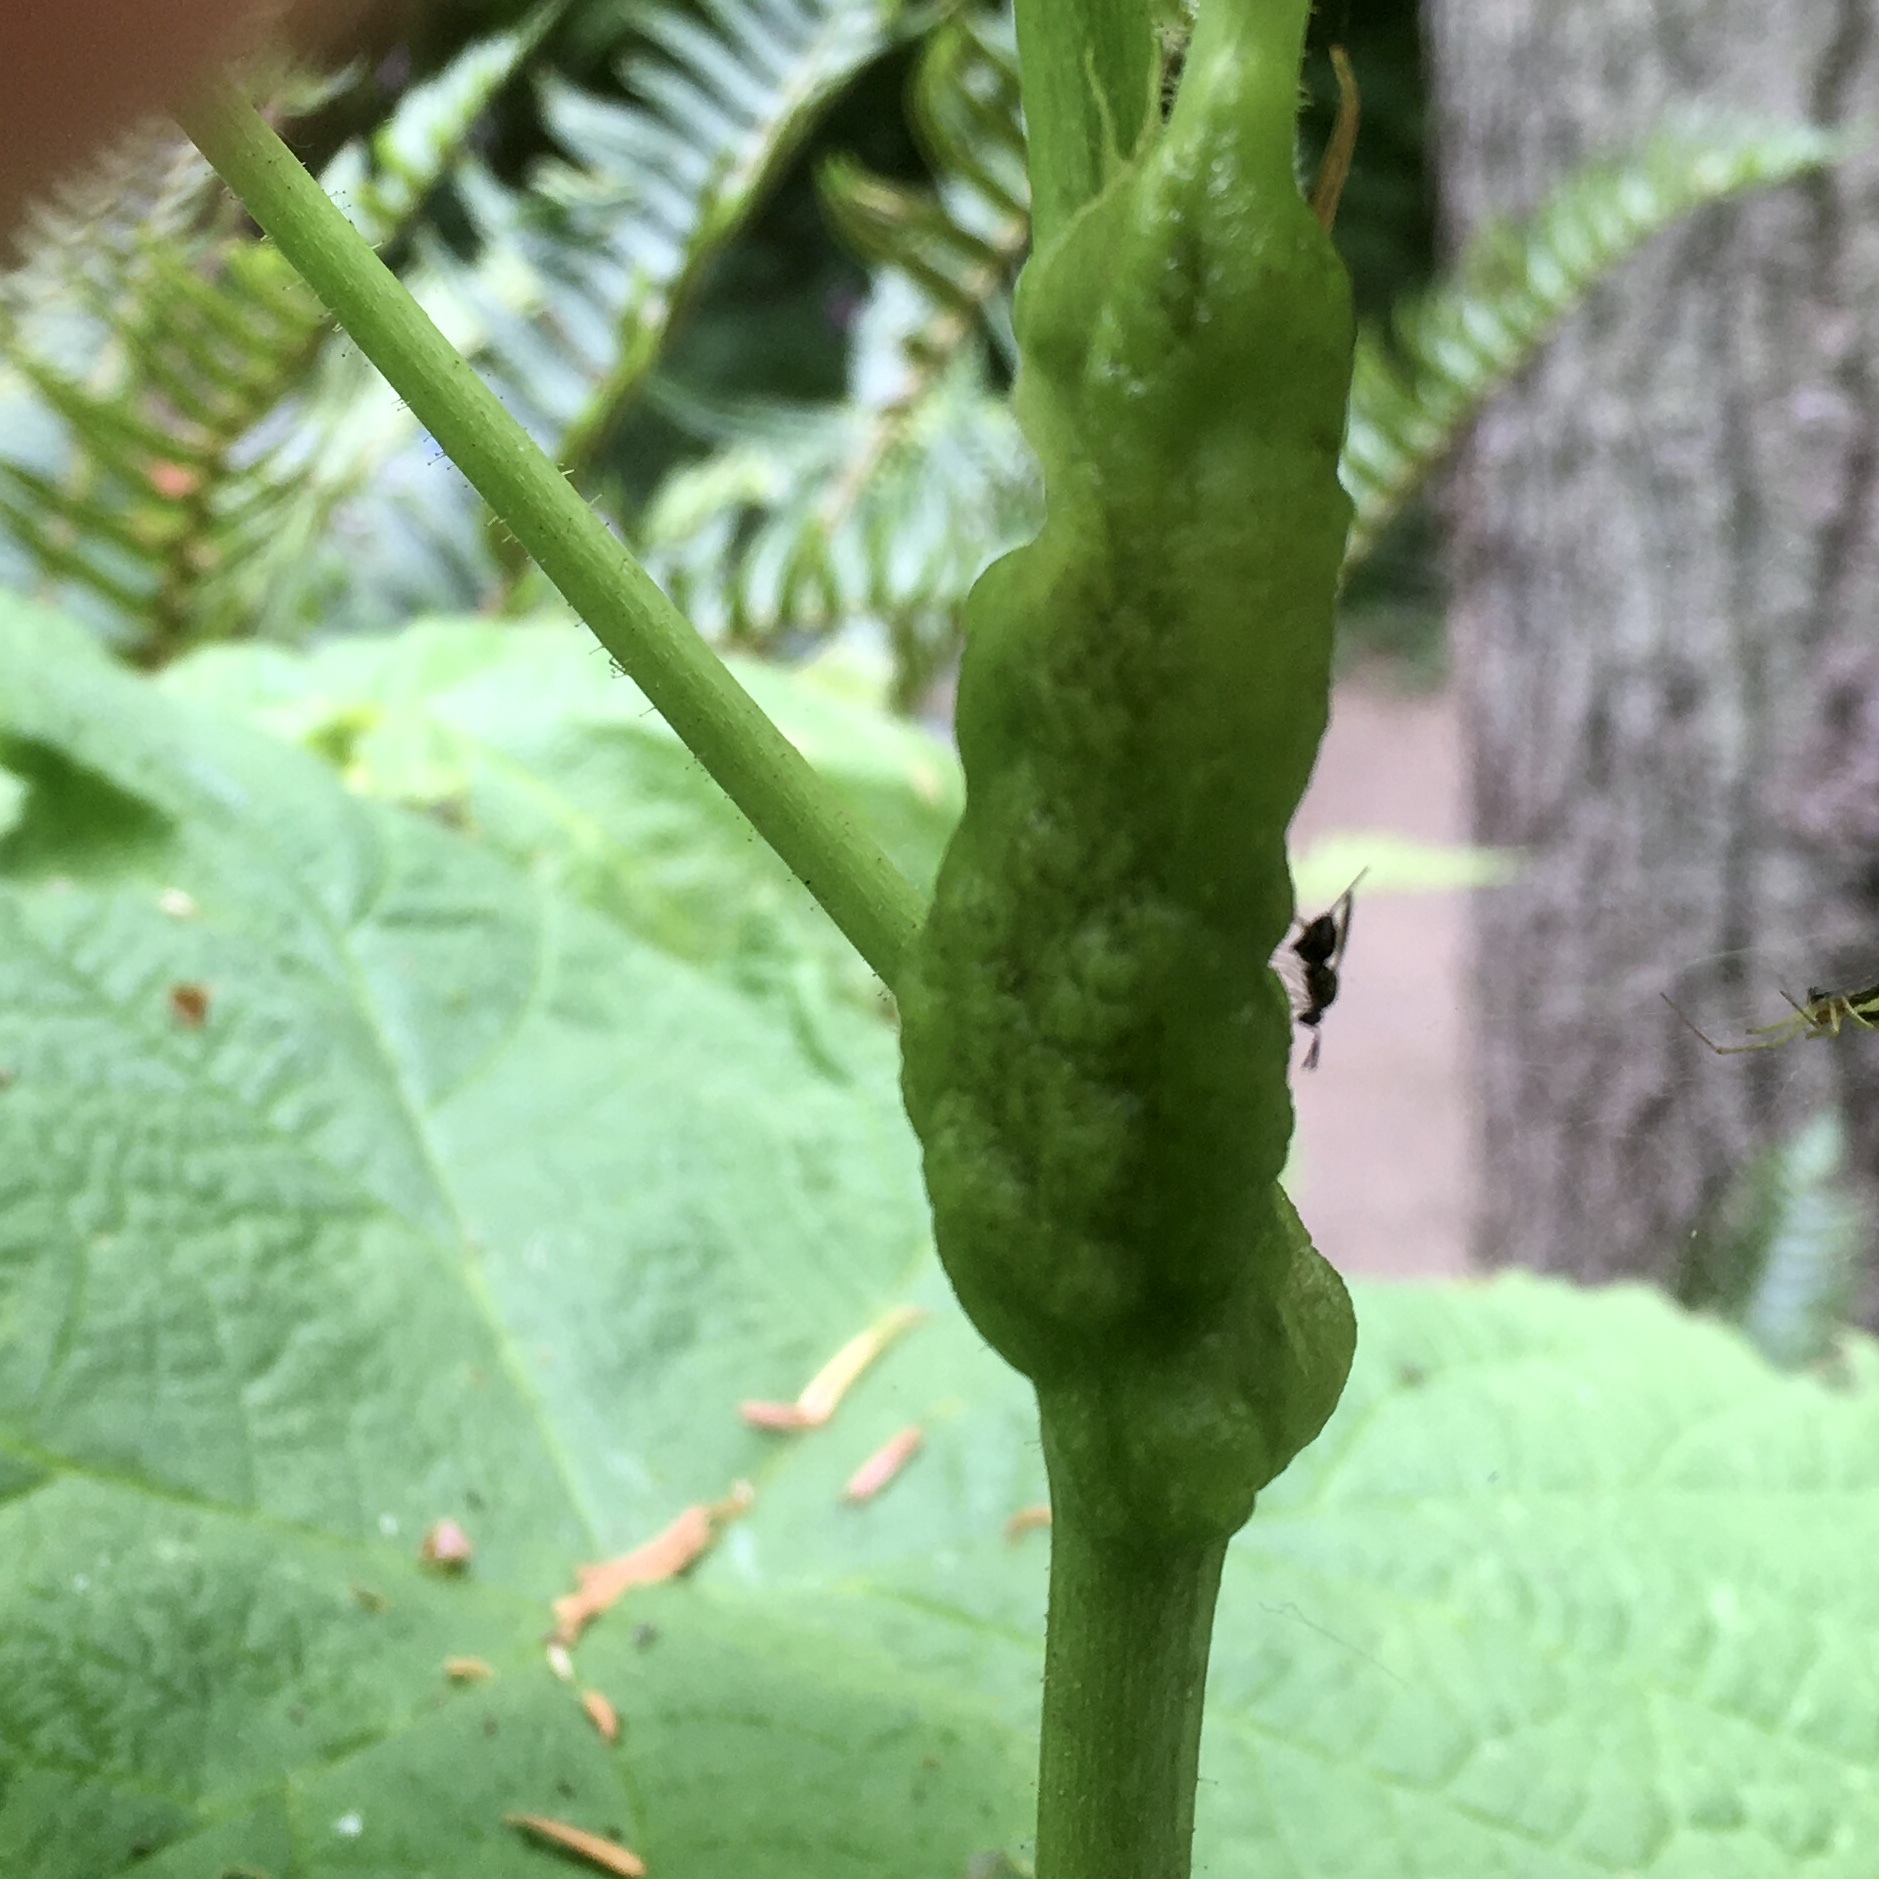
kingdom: Animalia
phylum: Arthropoda
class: Insecta
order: Hymenoptera
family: Cynipidae
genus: Diastrophus
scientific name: Diastrophus
